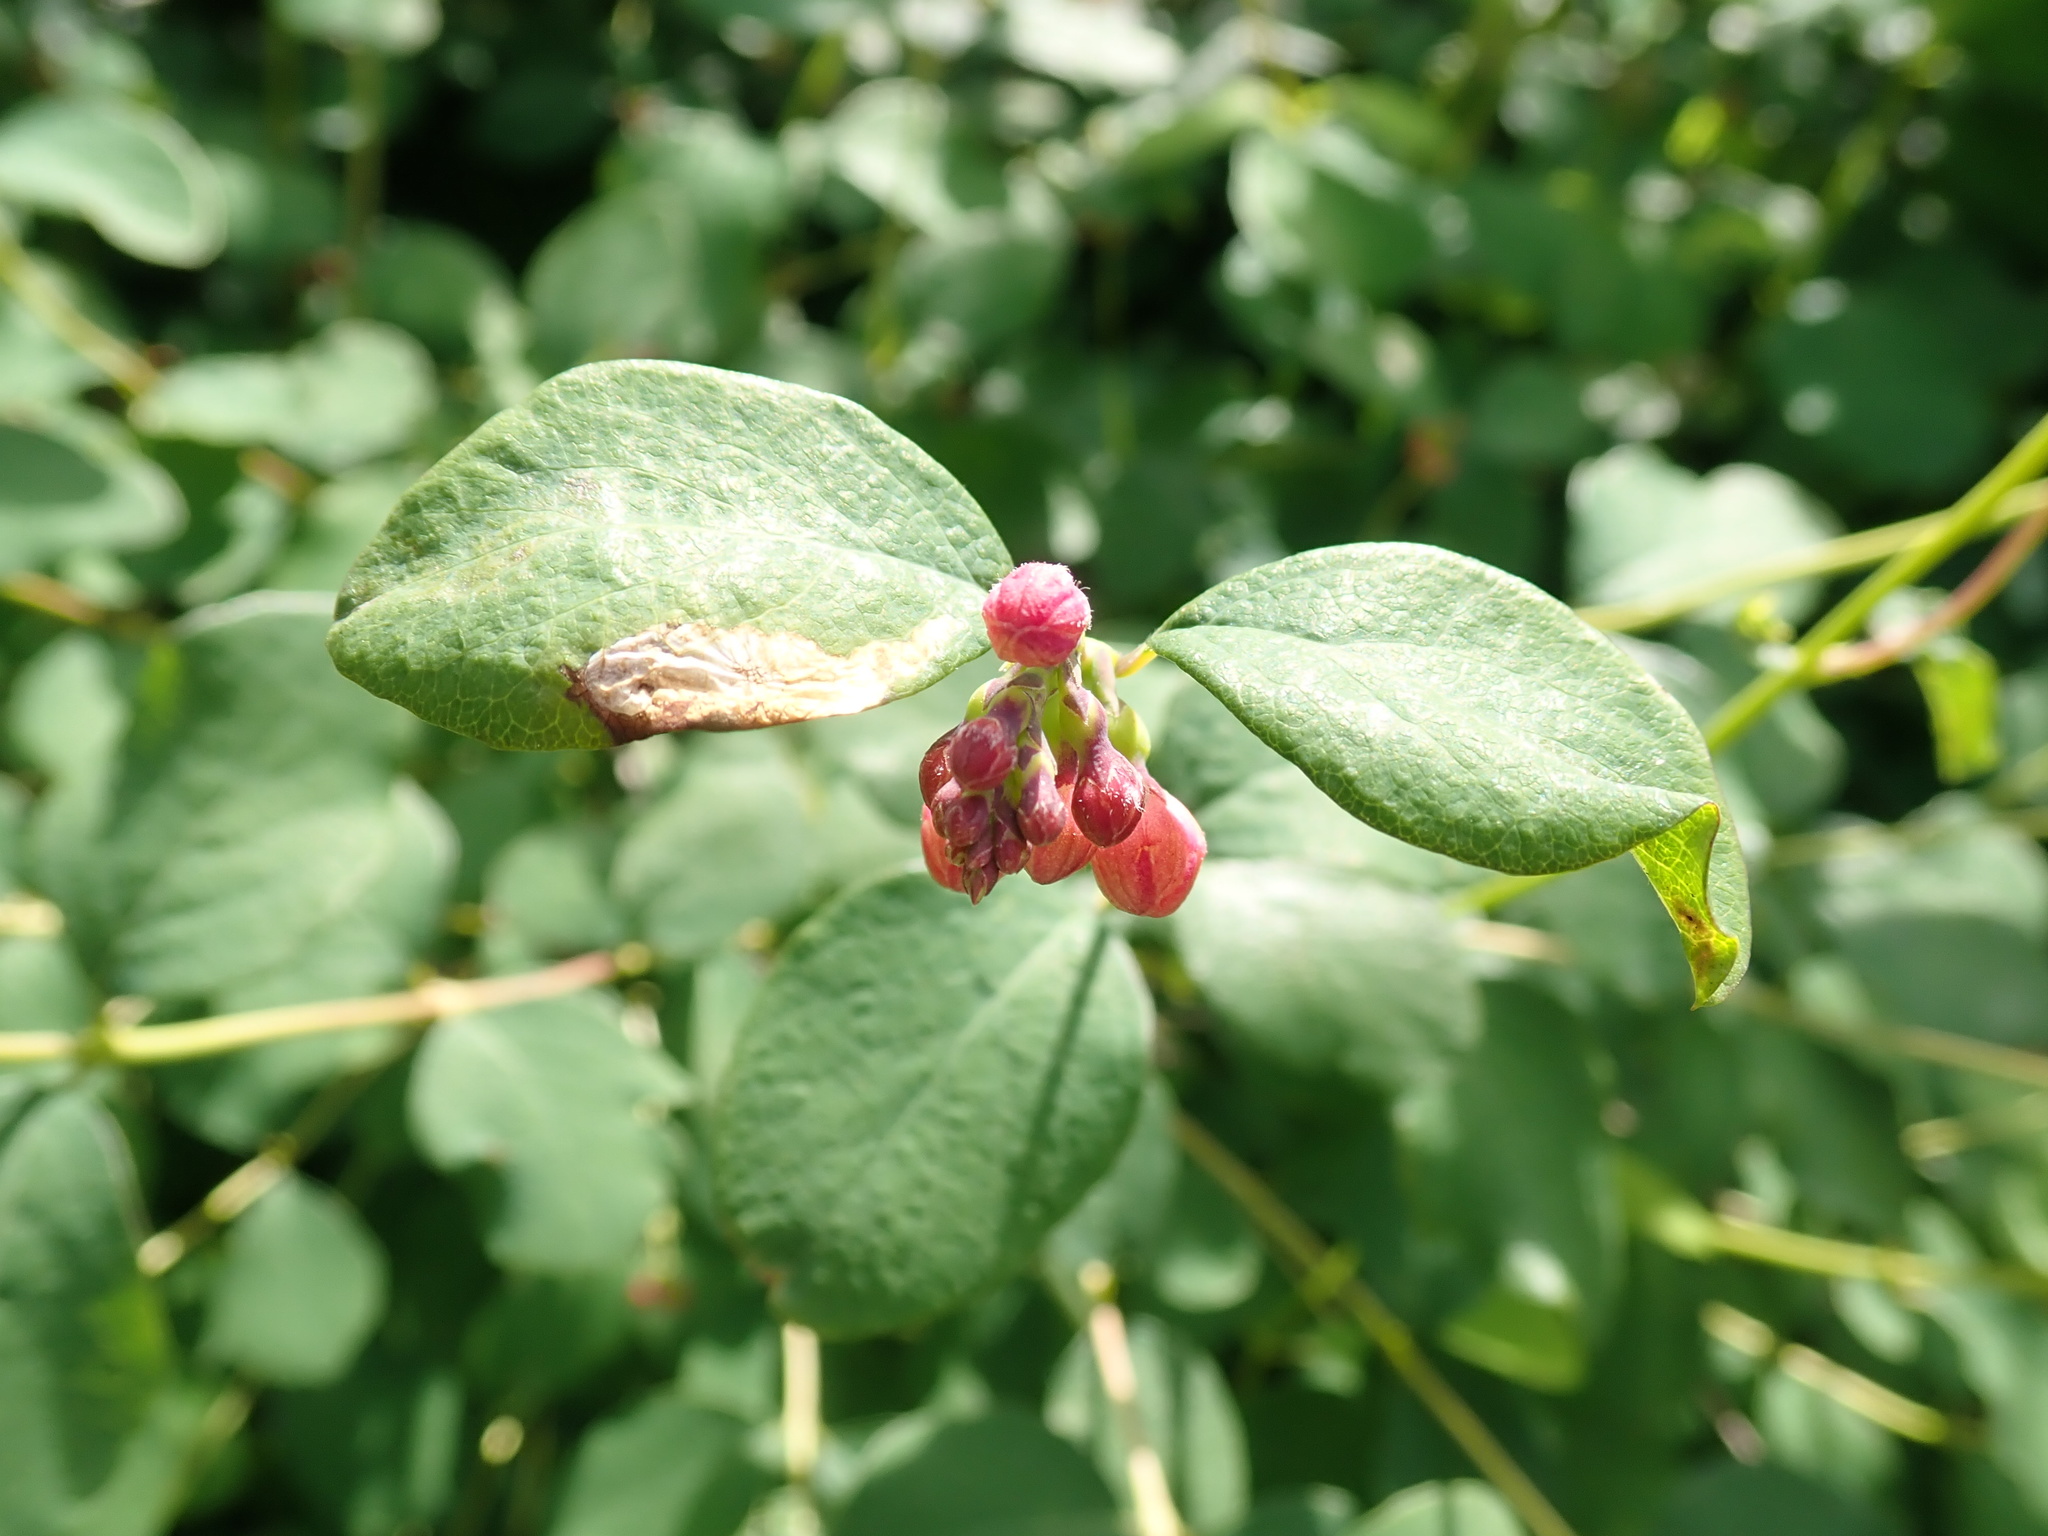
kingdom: Plantae
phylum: Tracheophyta
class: Magnoliopsida
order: Dipsacales
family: Caprifoliaceae
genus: Symphoricarpos
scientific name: Symphoricarpos albus
